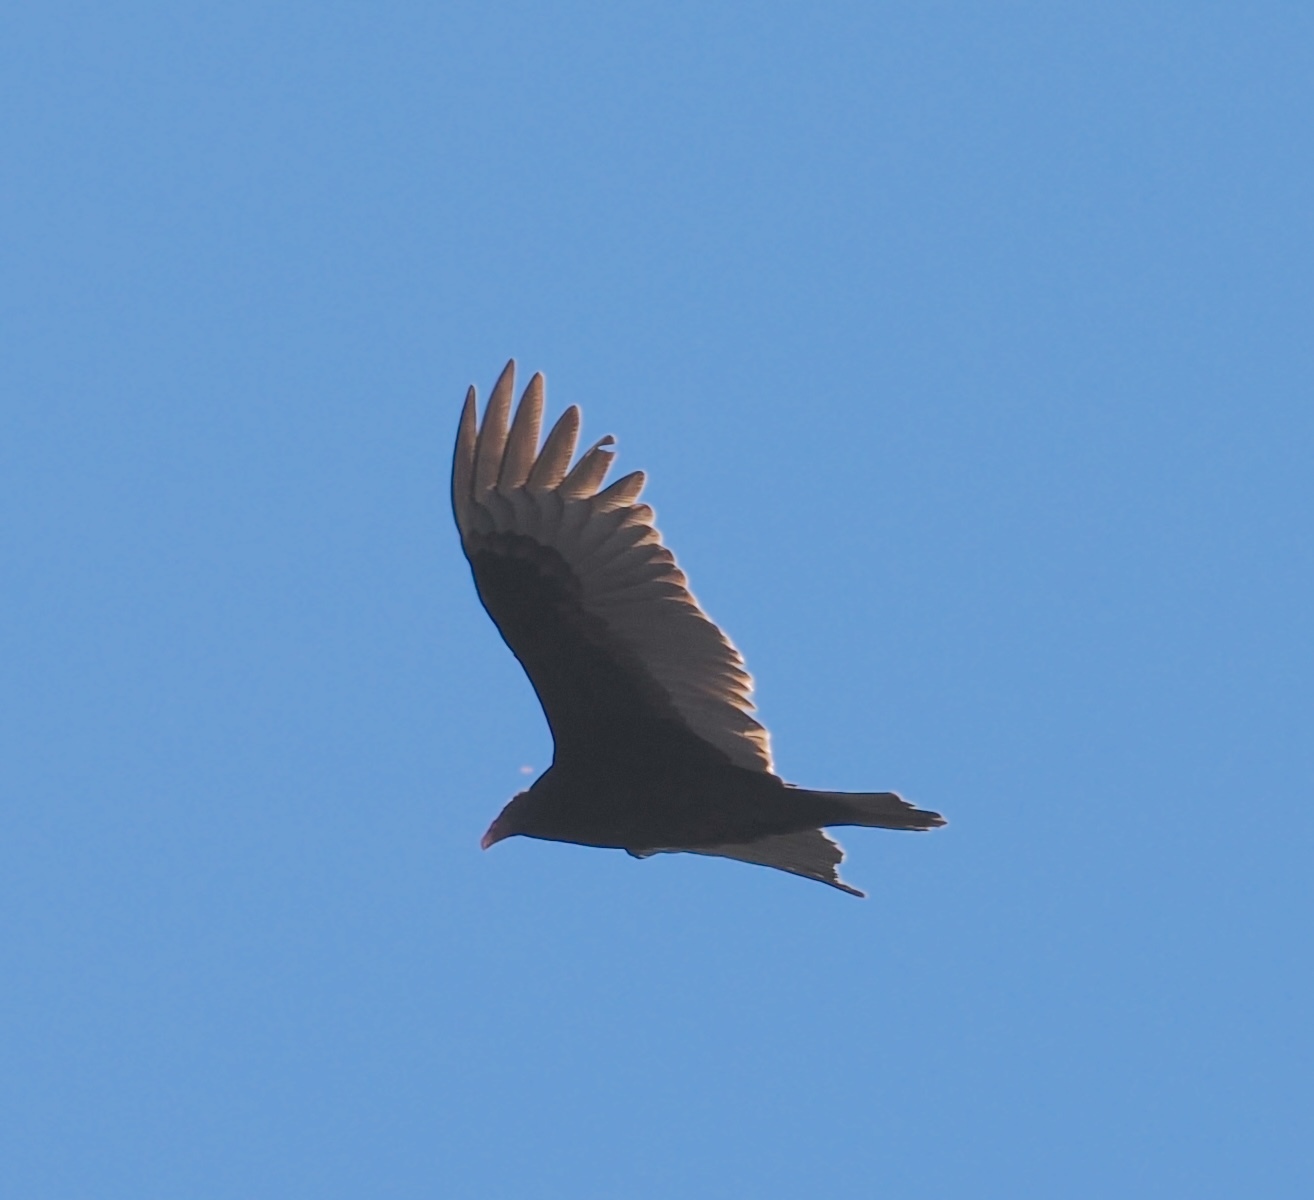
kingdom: Animalia
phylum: Chordata
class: Aves
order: Accipitriformes
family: Cathartidae
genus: Cathartes
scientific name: Cathartes aura
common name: Turkey vulture
